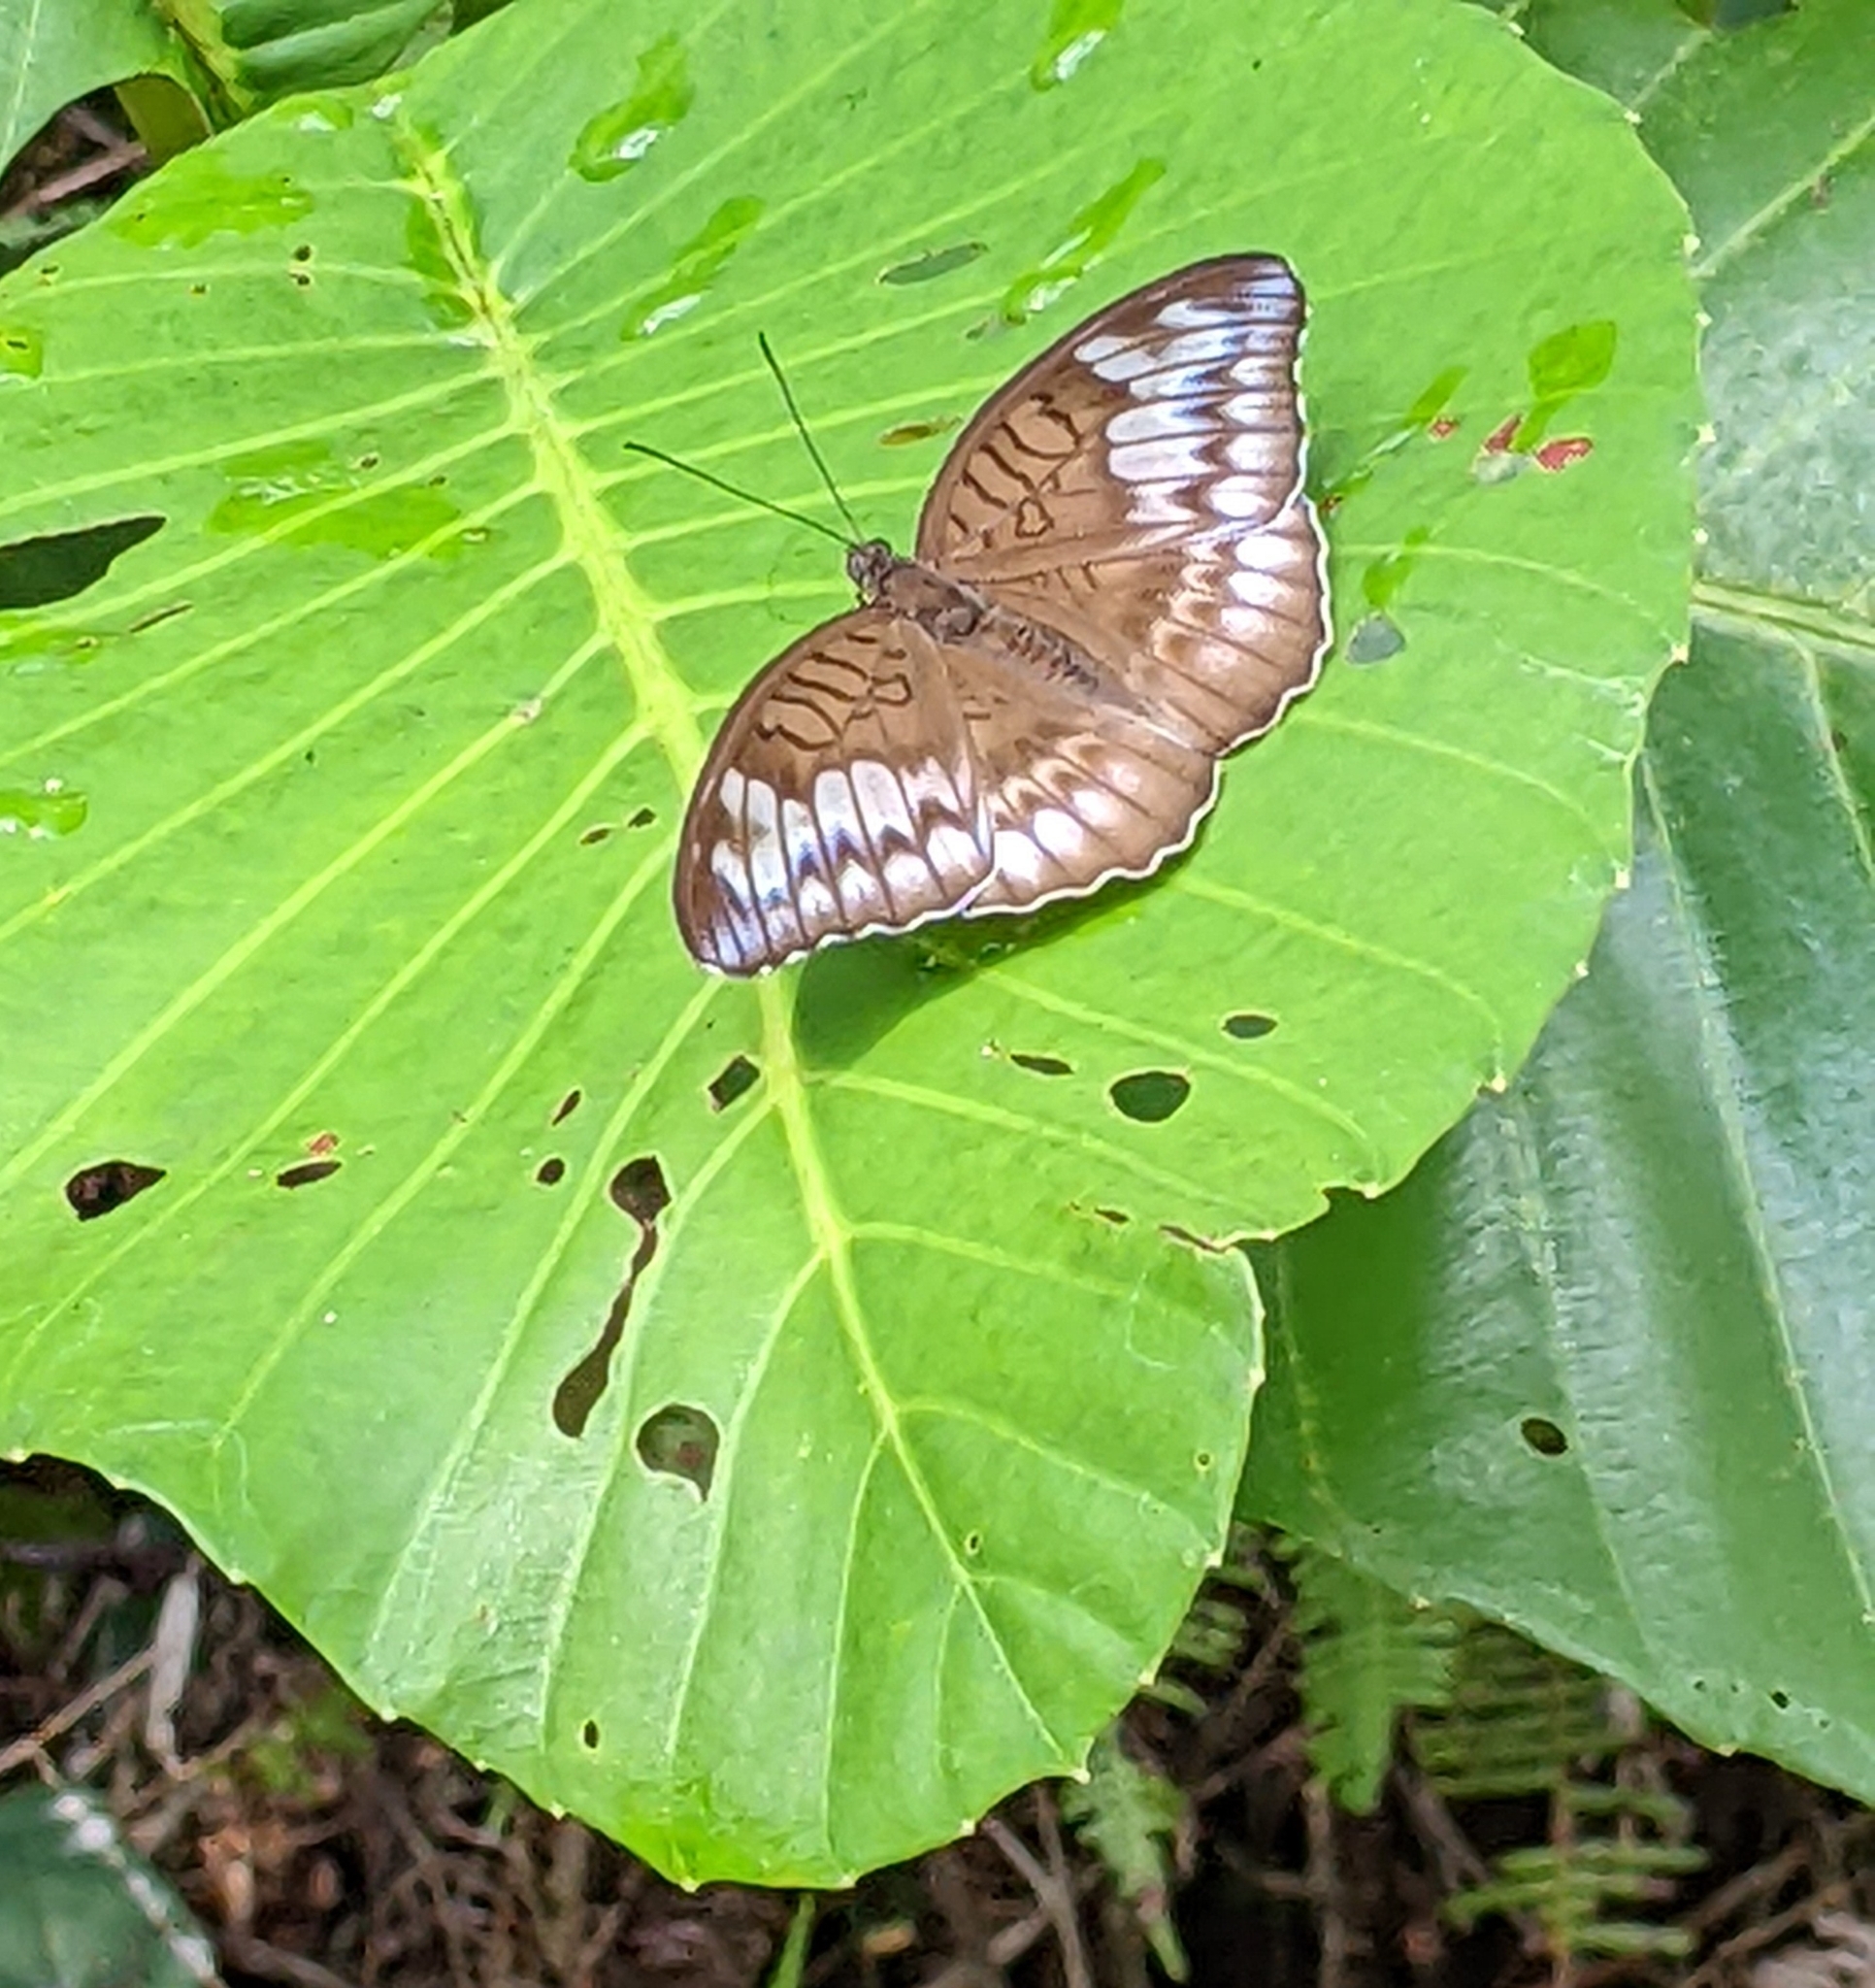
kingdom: Animalia
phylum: Arthropoda
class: Insecta
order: Lepidoptera
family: Nymphalidae
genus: Tanaecia
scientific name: Tanaecia iapis
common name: Horsfield's baron
